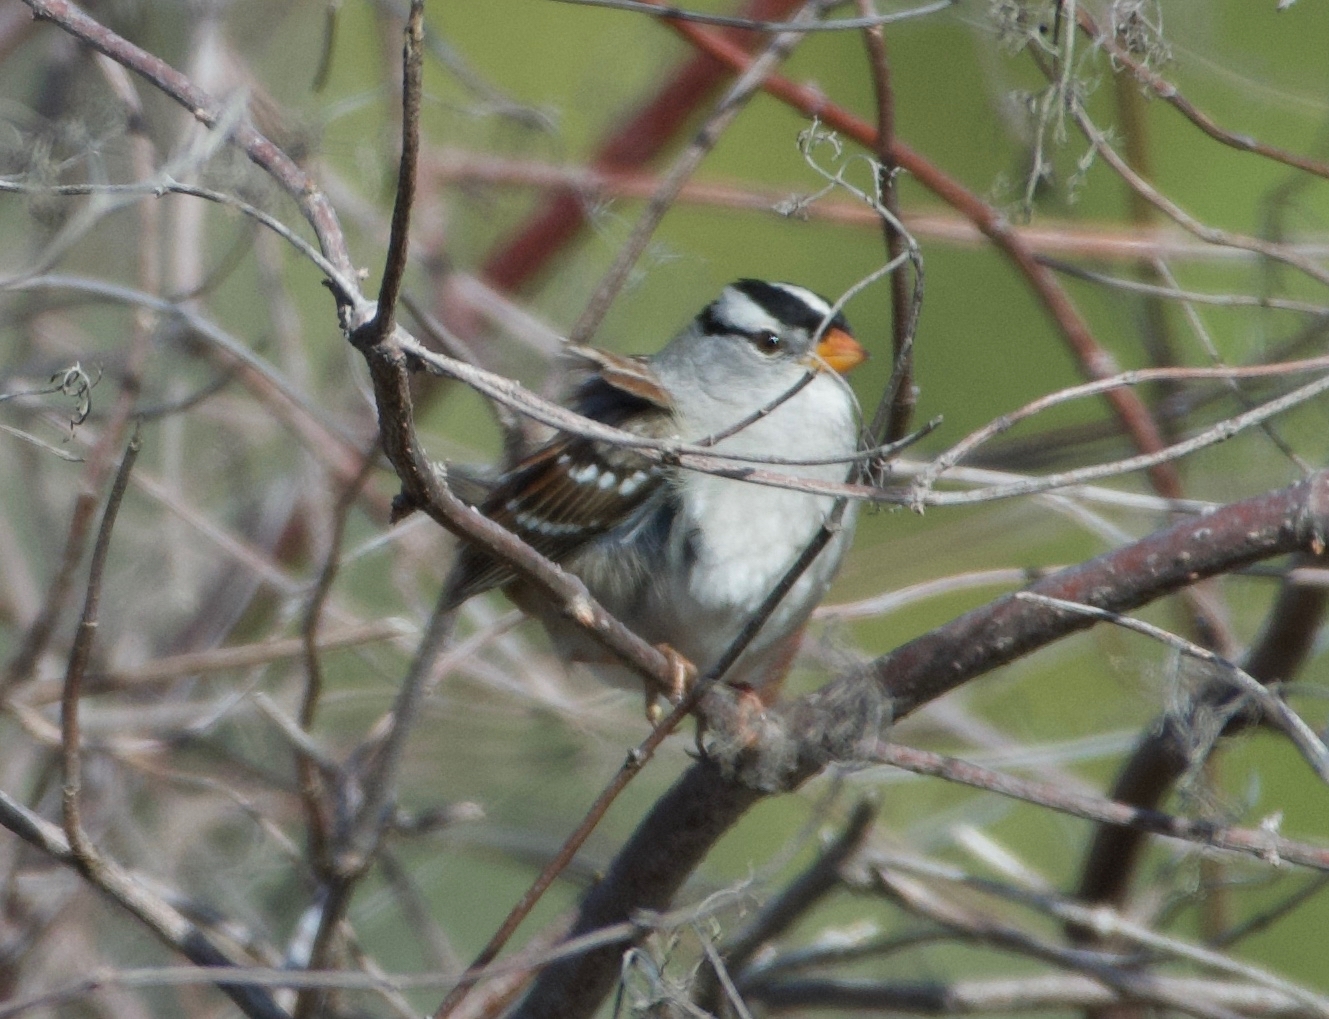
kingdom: Animalia
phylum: Chordata
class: Aves
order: Passeriformes
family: Passerellidae
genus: Zonotrichia
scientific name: Zonotrichia leucophrys
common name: White-crowned sparrow
